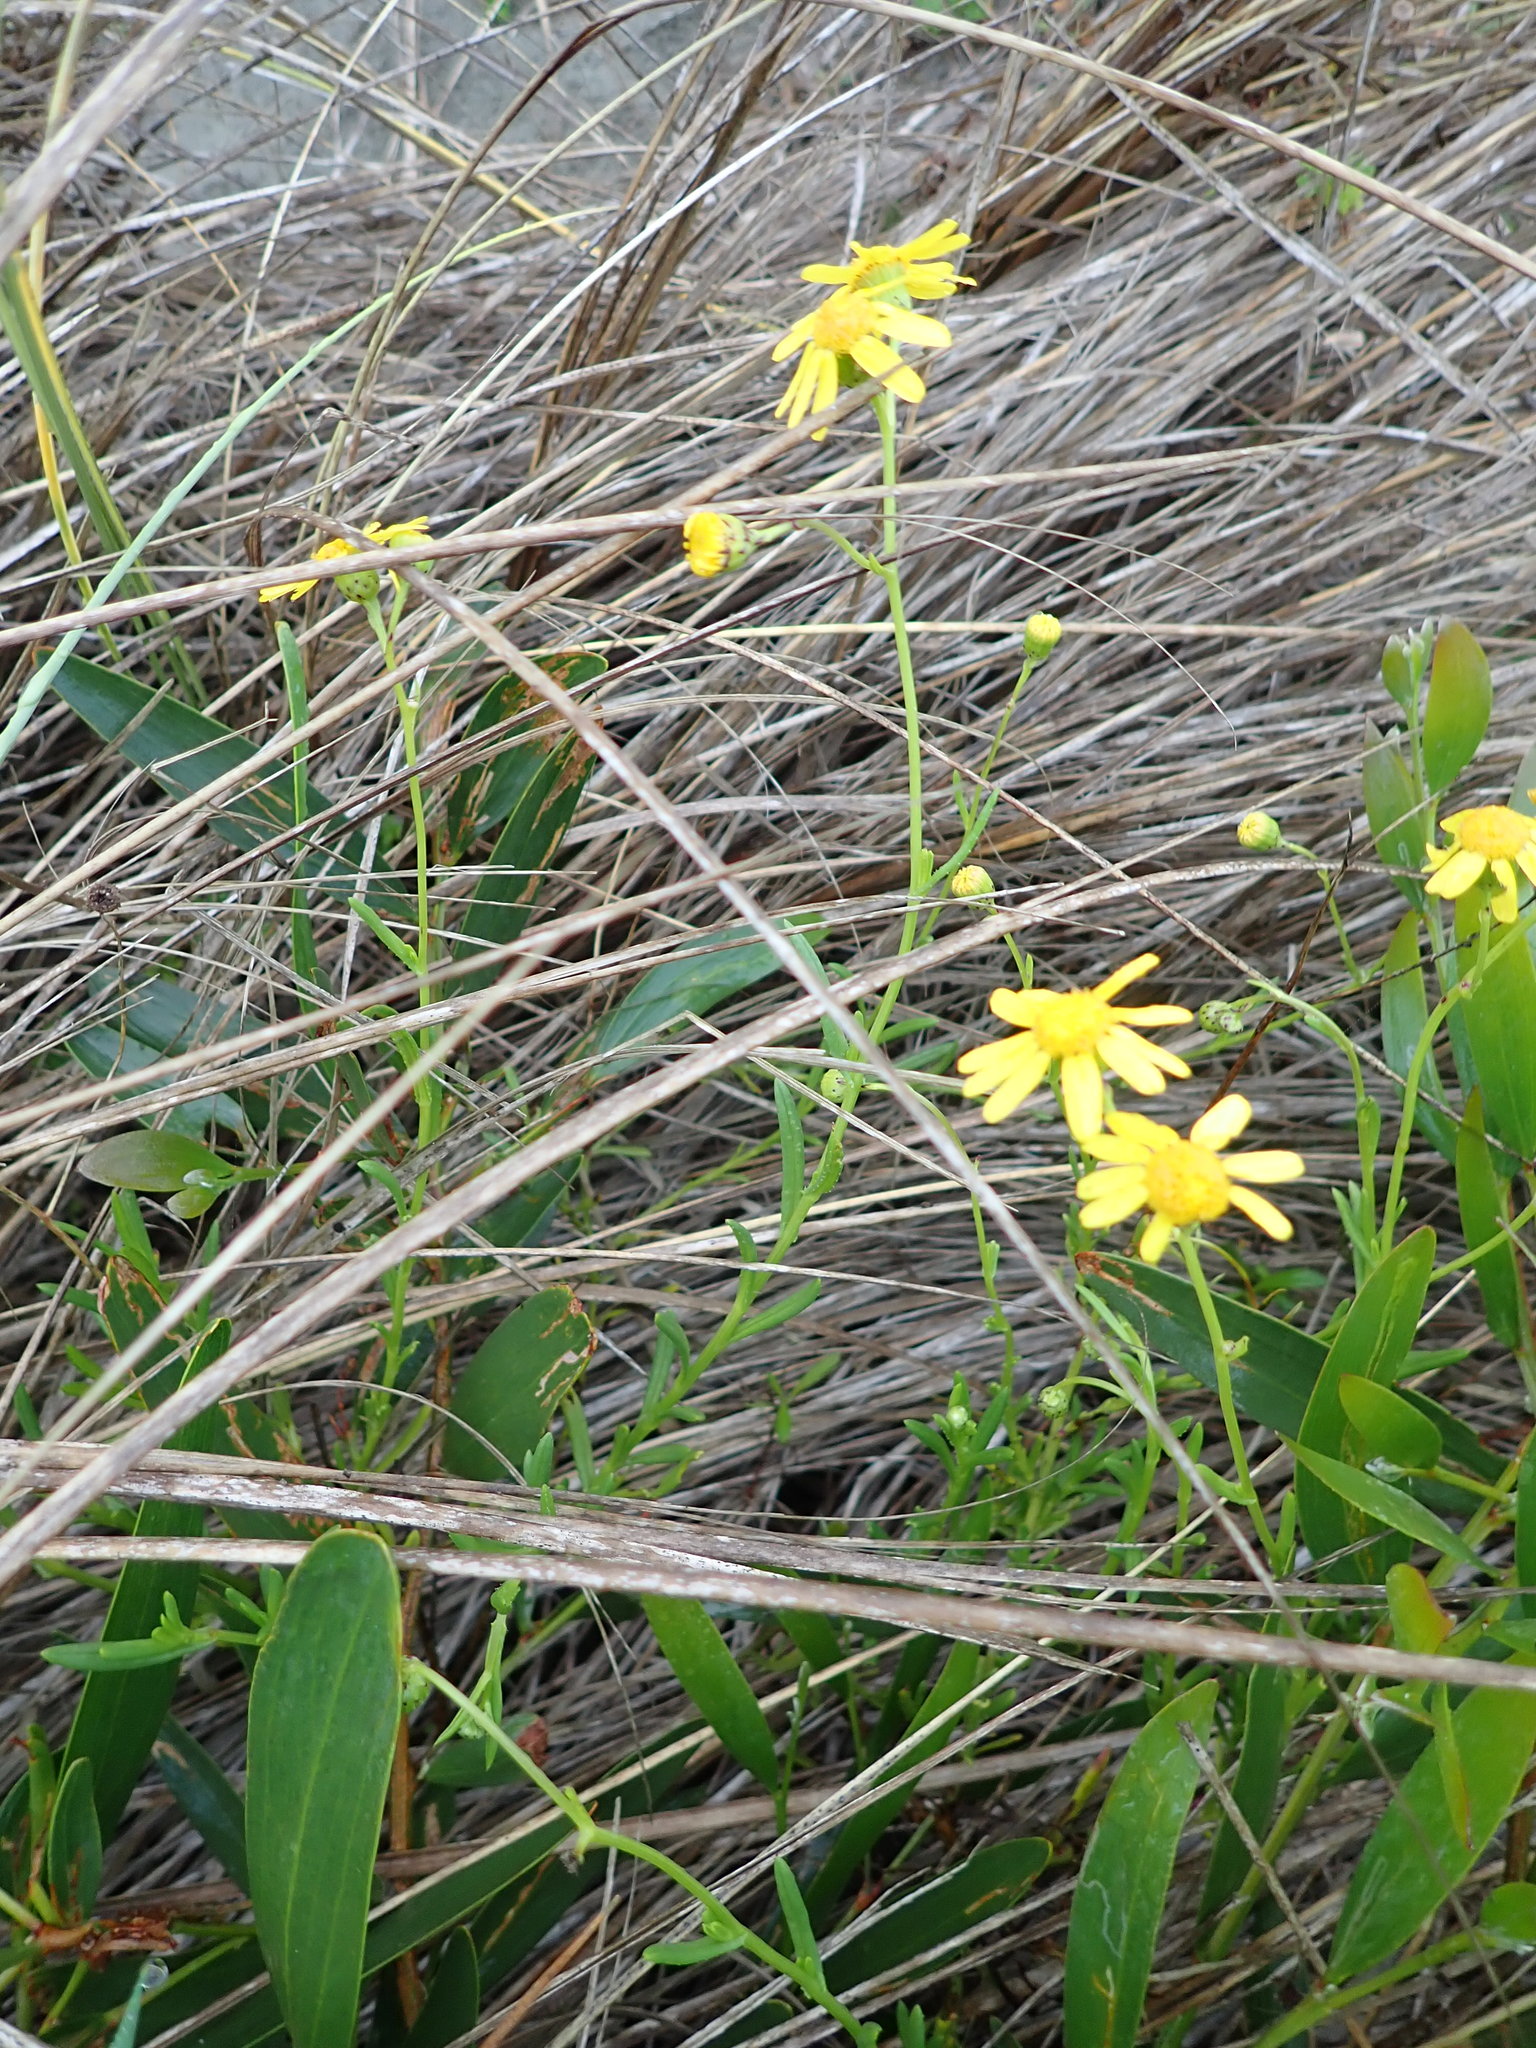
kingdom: Plantae
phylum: Tracheophyta
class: Magnoliopsida
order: Asterales
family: Asteraceae
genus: Senecio
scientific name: Senecio skirrhodon
